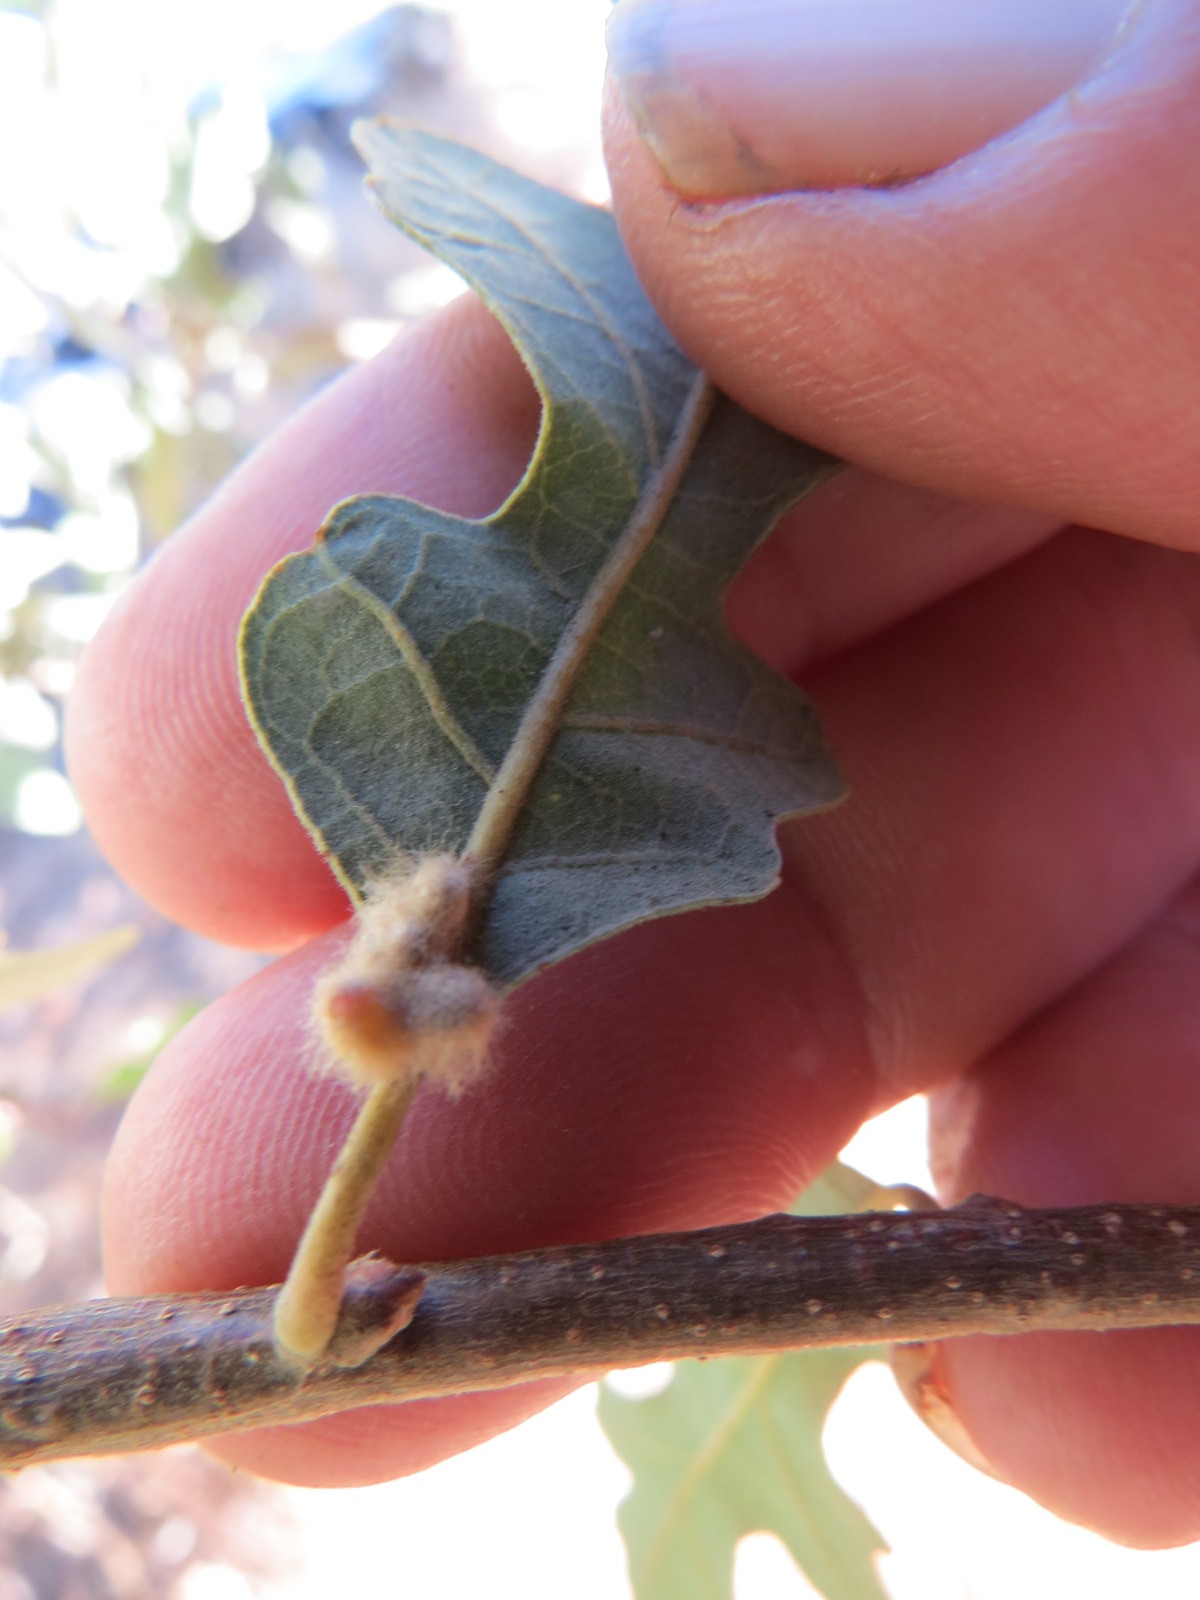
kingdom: Animalia
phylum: Arthropoda
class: Insecta
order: Hymenoptera
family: Cynipidae
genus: Andricus
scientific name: Andricus Druon fullawayi
